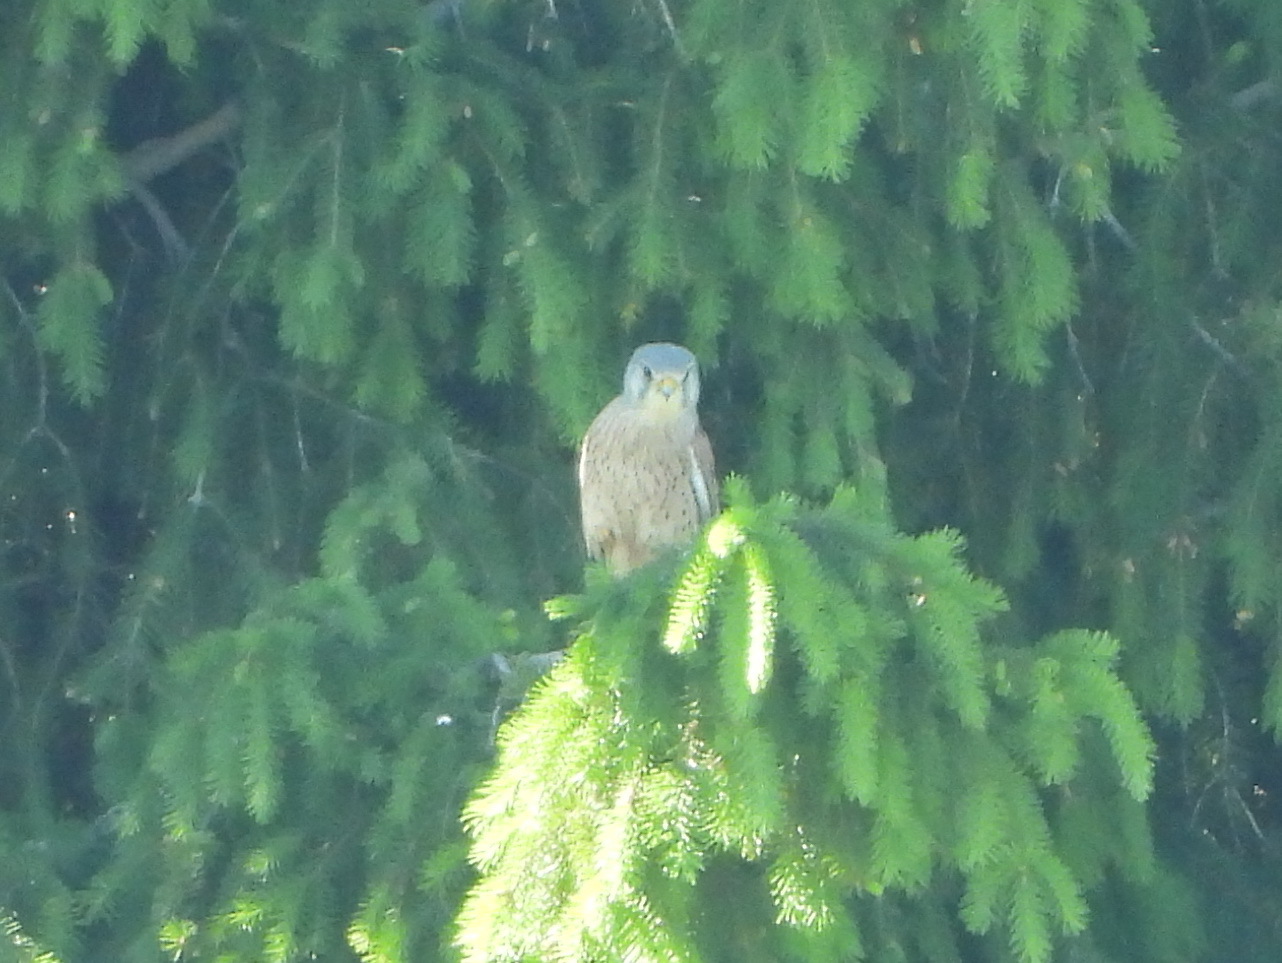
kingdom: Animalia
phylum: Chordata
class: Aves
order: Falconiformes
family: Falconidae
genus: Falco
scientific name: Falco tinnunculus
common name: Common kestrel
